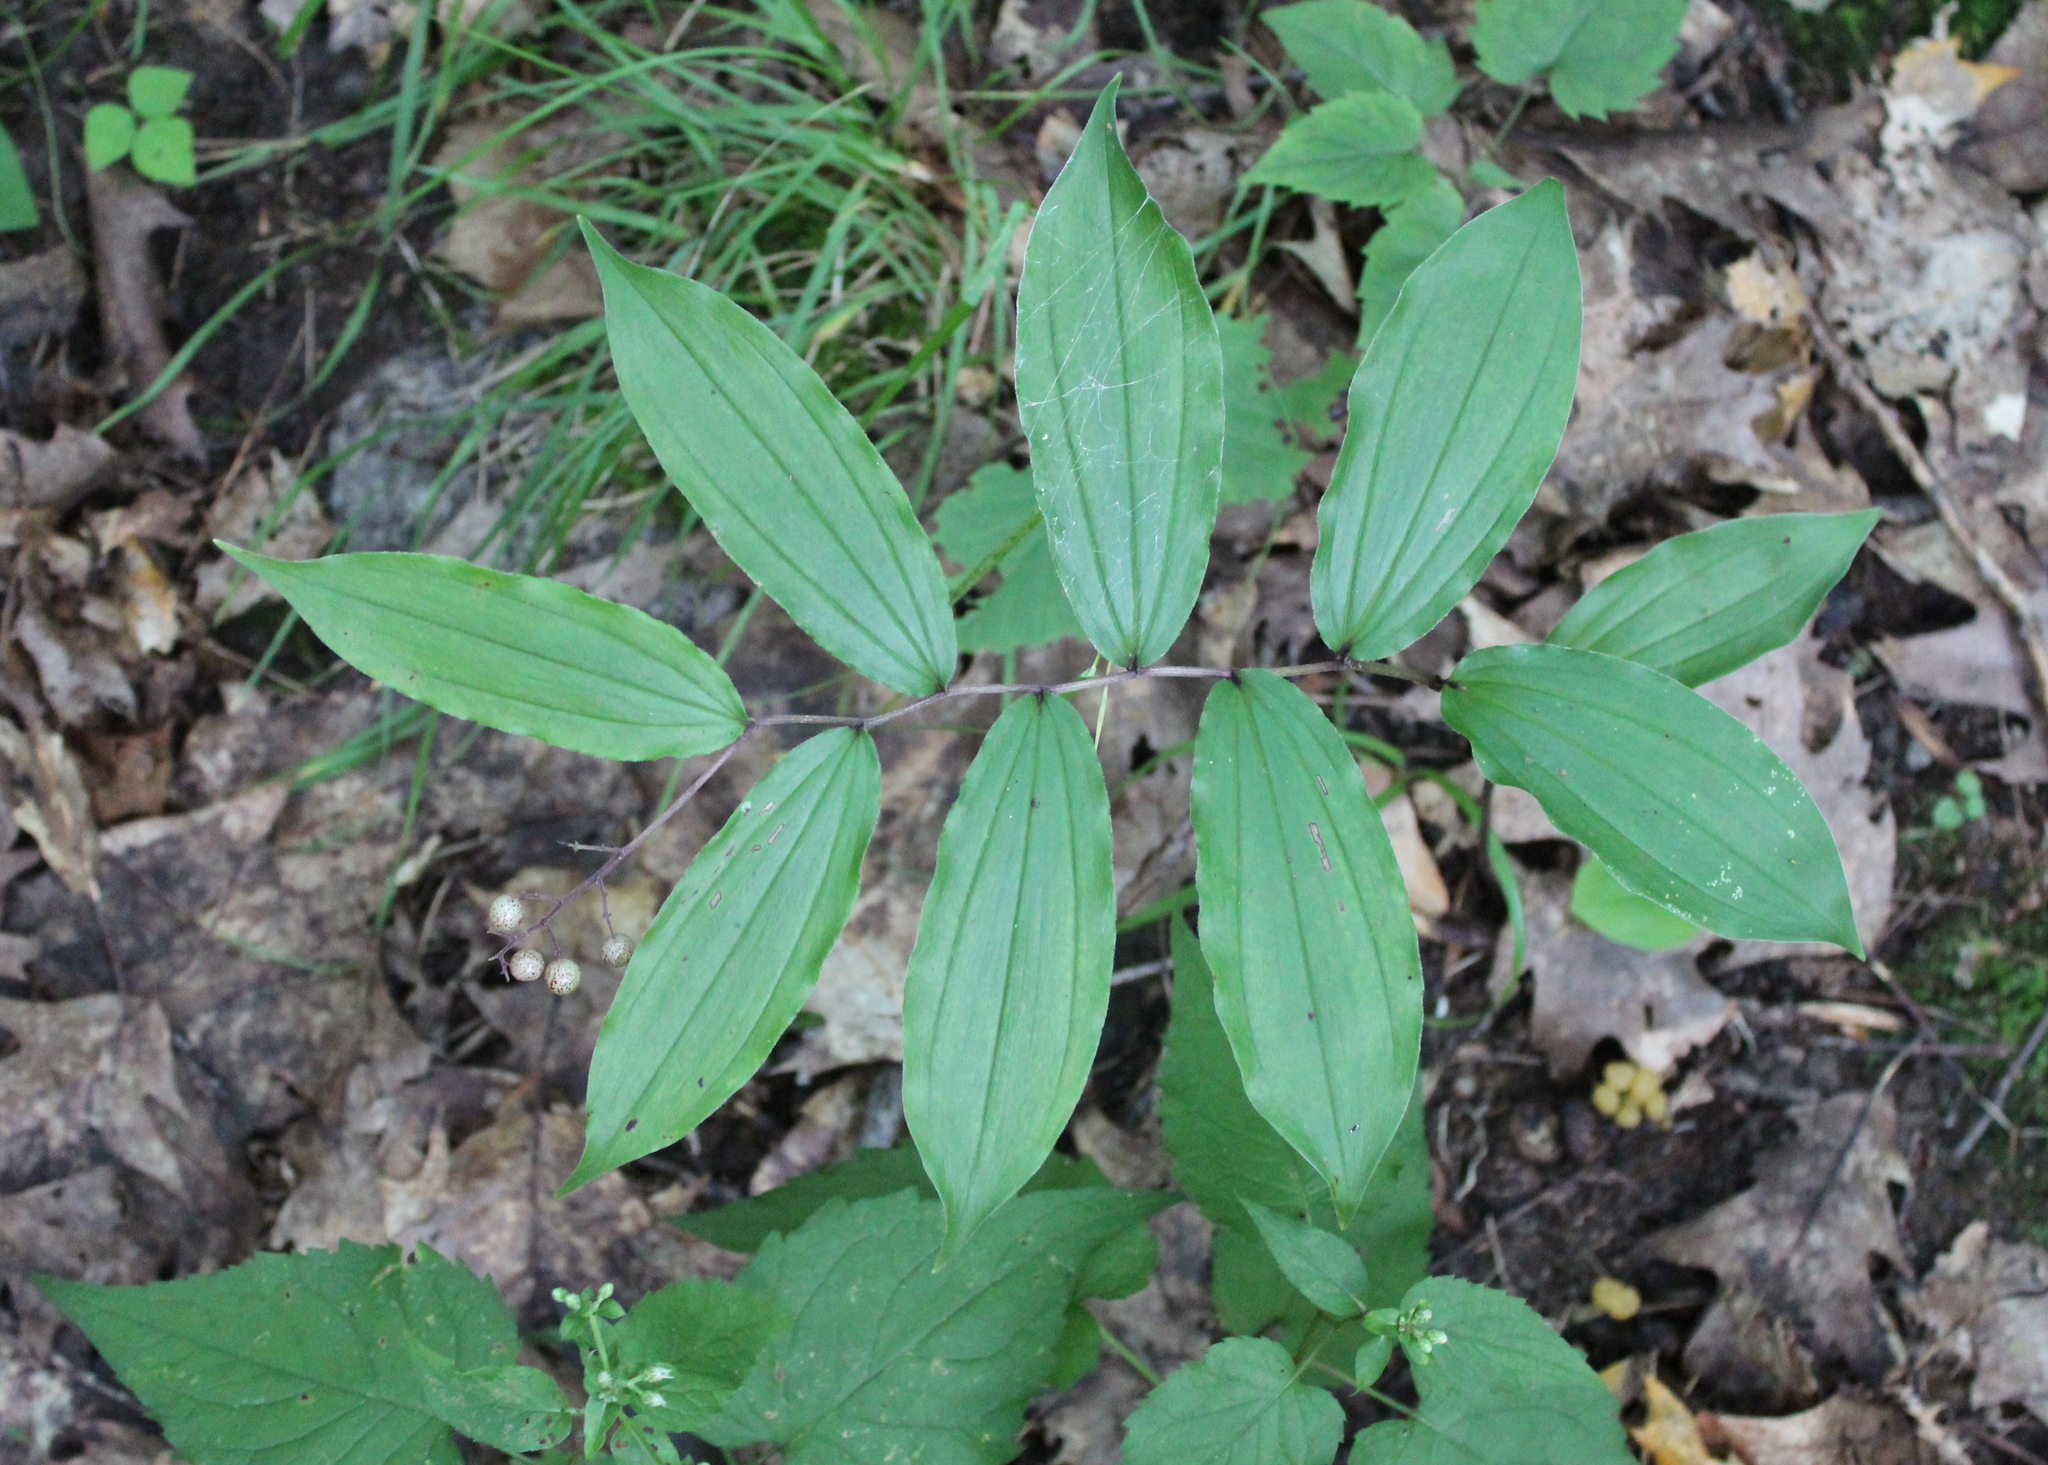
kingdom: Plantae
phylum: Tracheophyta
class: Liliopsida
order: Asparagales
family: Asparagaceae
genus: Maianthemum
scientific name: Maianthemum racemosum
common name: False spikenard
